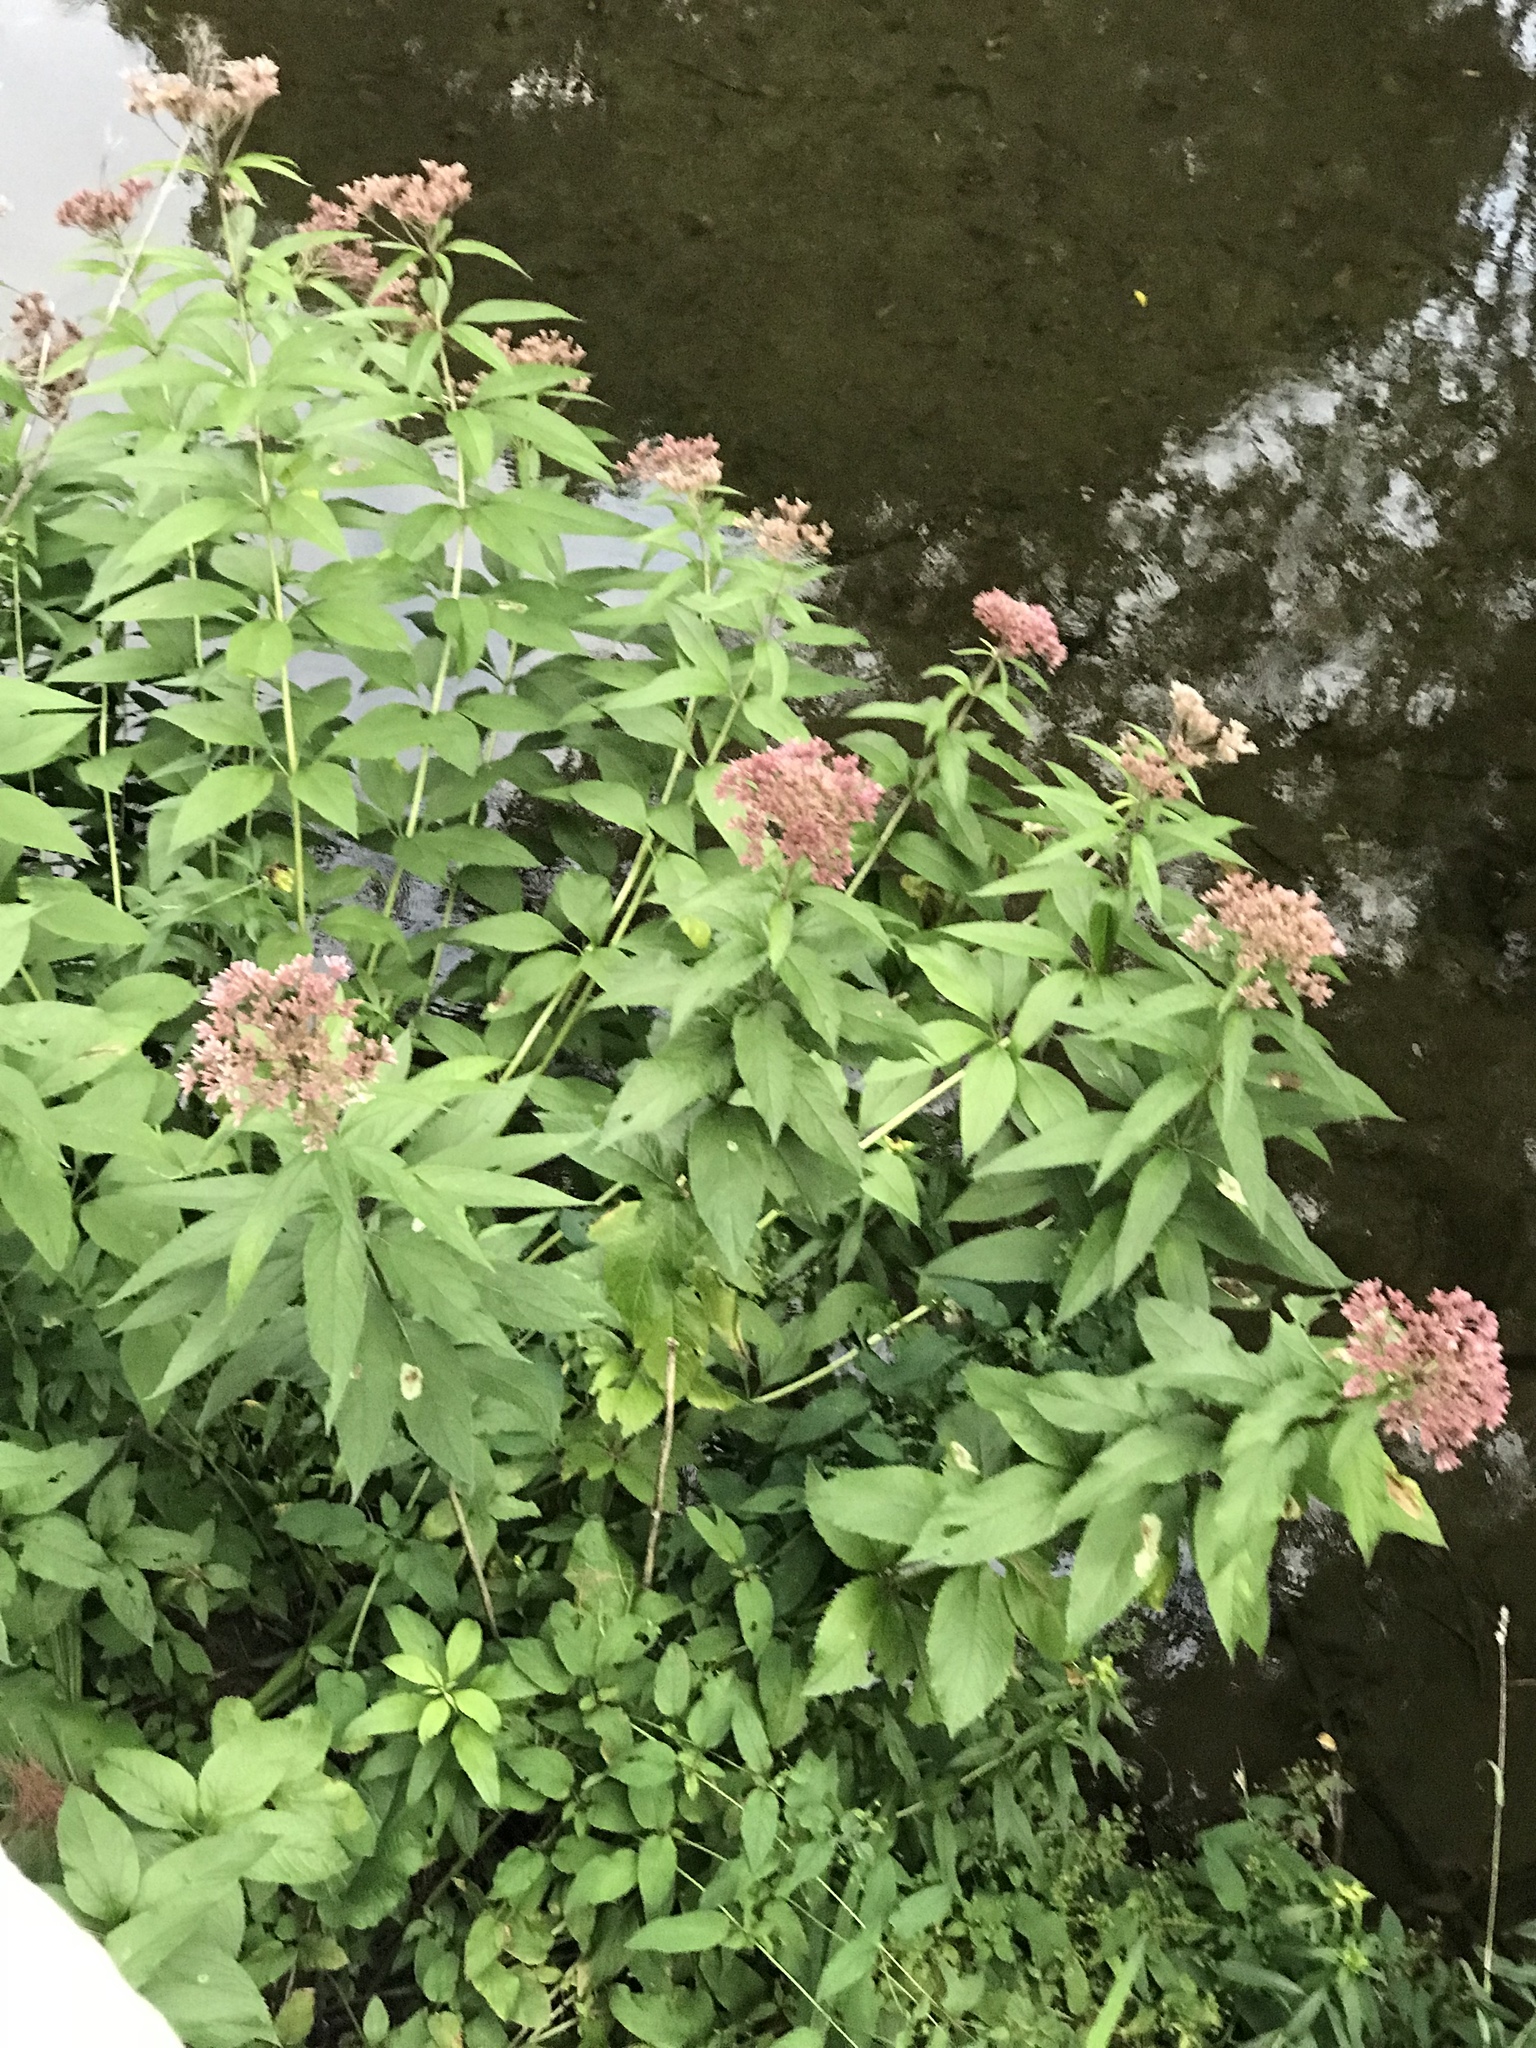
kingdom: Plantae
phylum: Tracheophyta
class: Magnoliopsida
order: Asterales
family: Asteraceae
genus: Eutrochium
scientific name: Eutrochium maculatum
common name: Spotted joe pye weed
